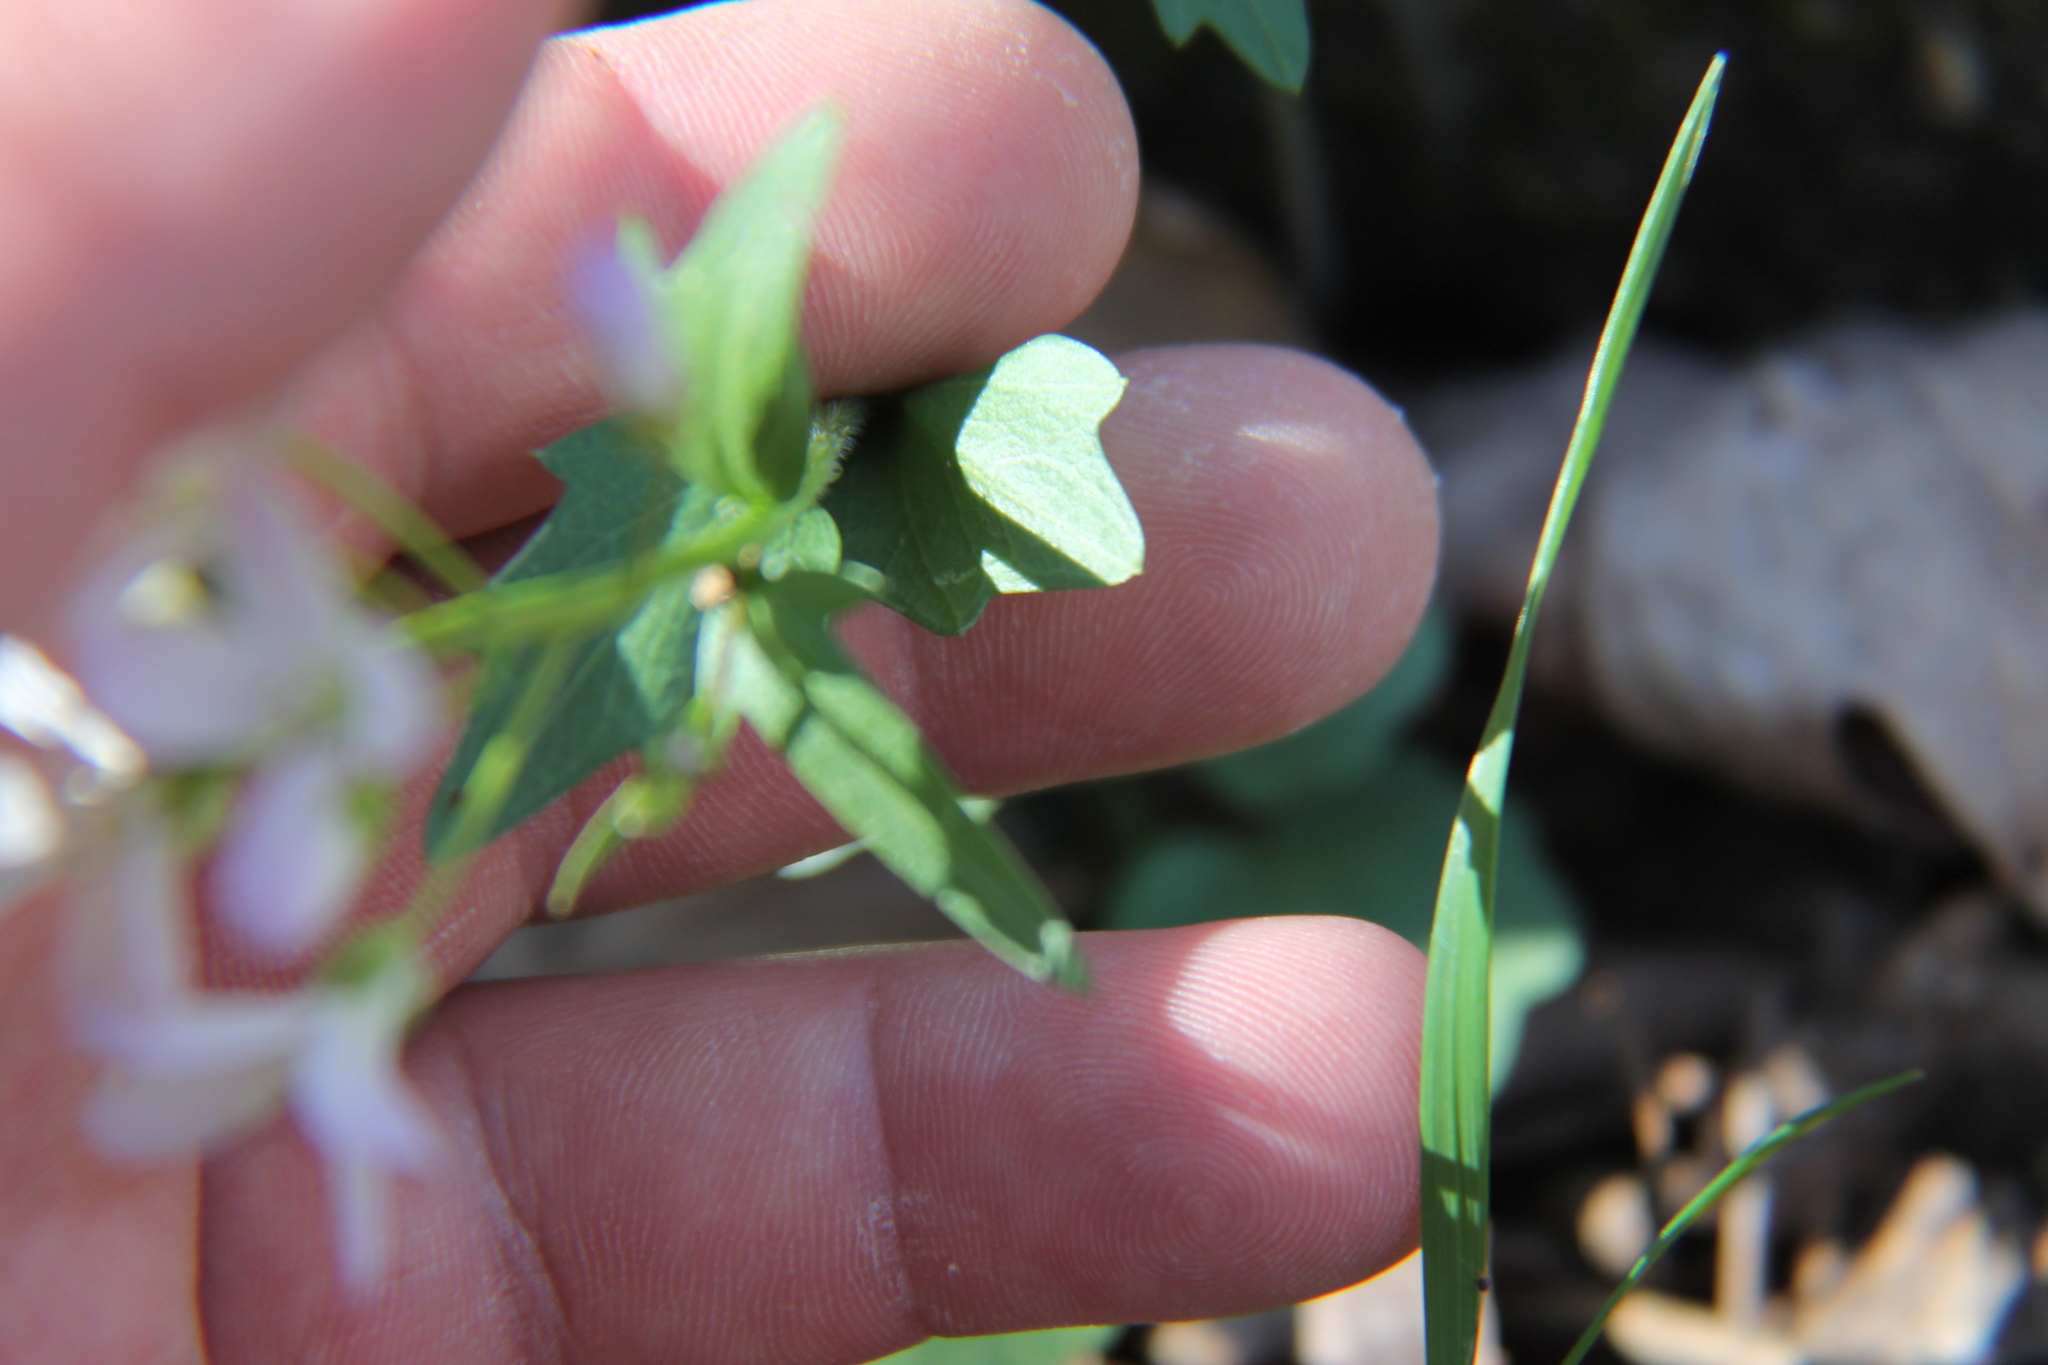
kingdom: Plantae
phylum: Tracheophyta
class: Magnoliopsida
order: Brassicales
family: Brassicaceae
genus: Cardamine
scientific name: Cardamine douglassii
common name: Purple cress
